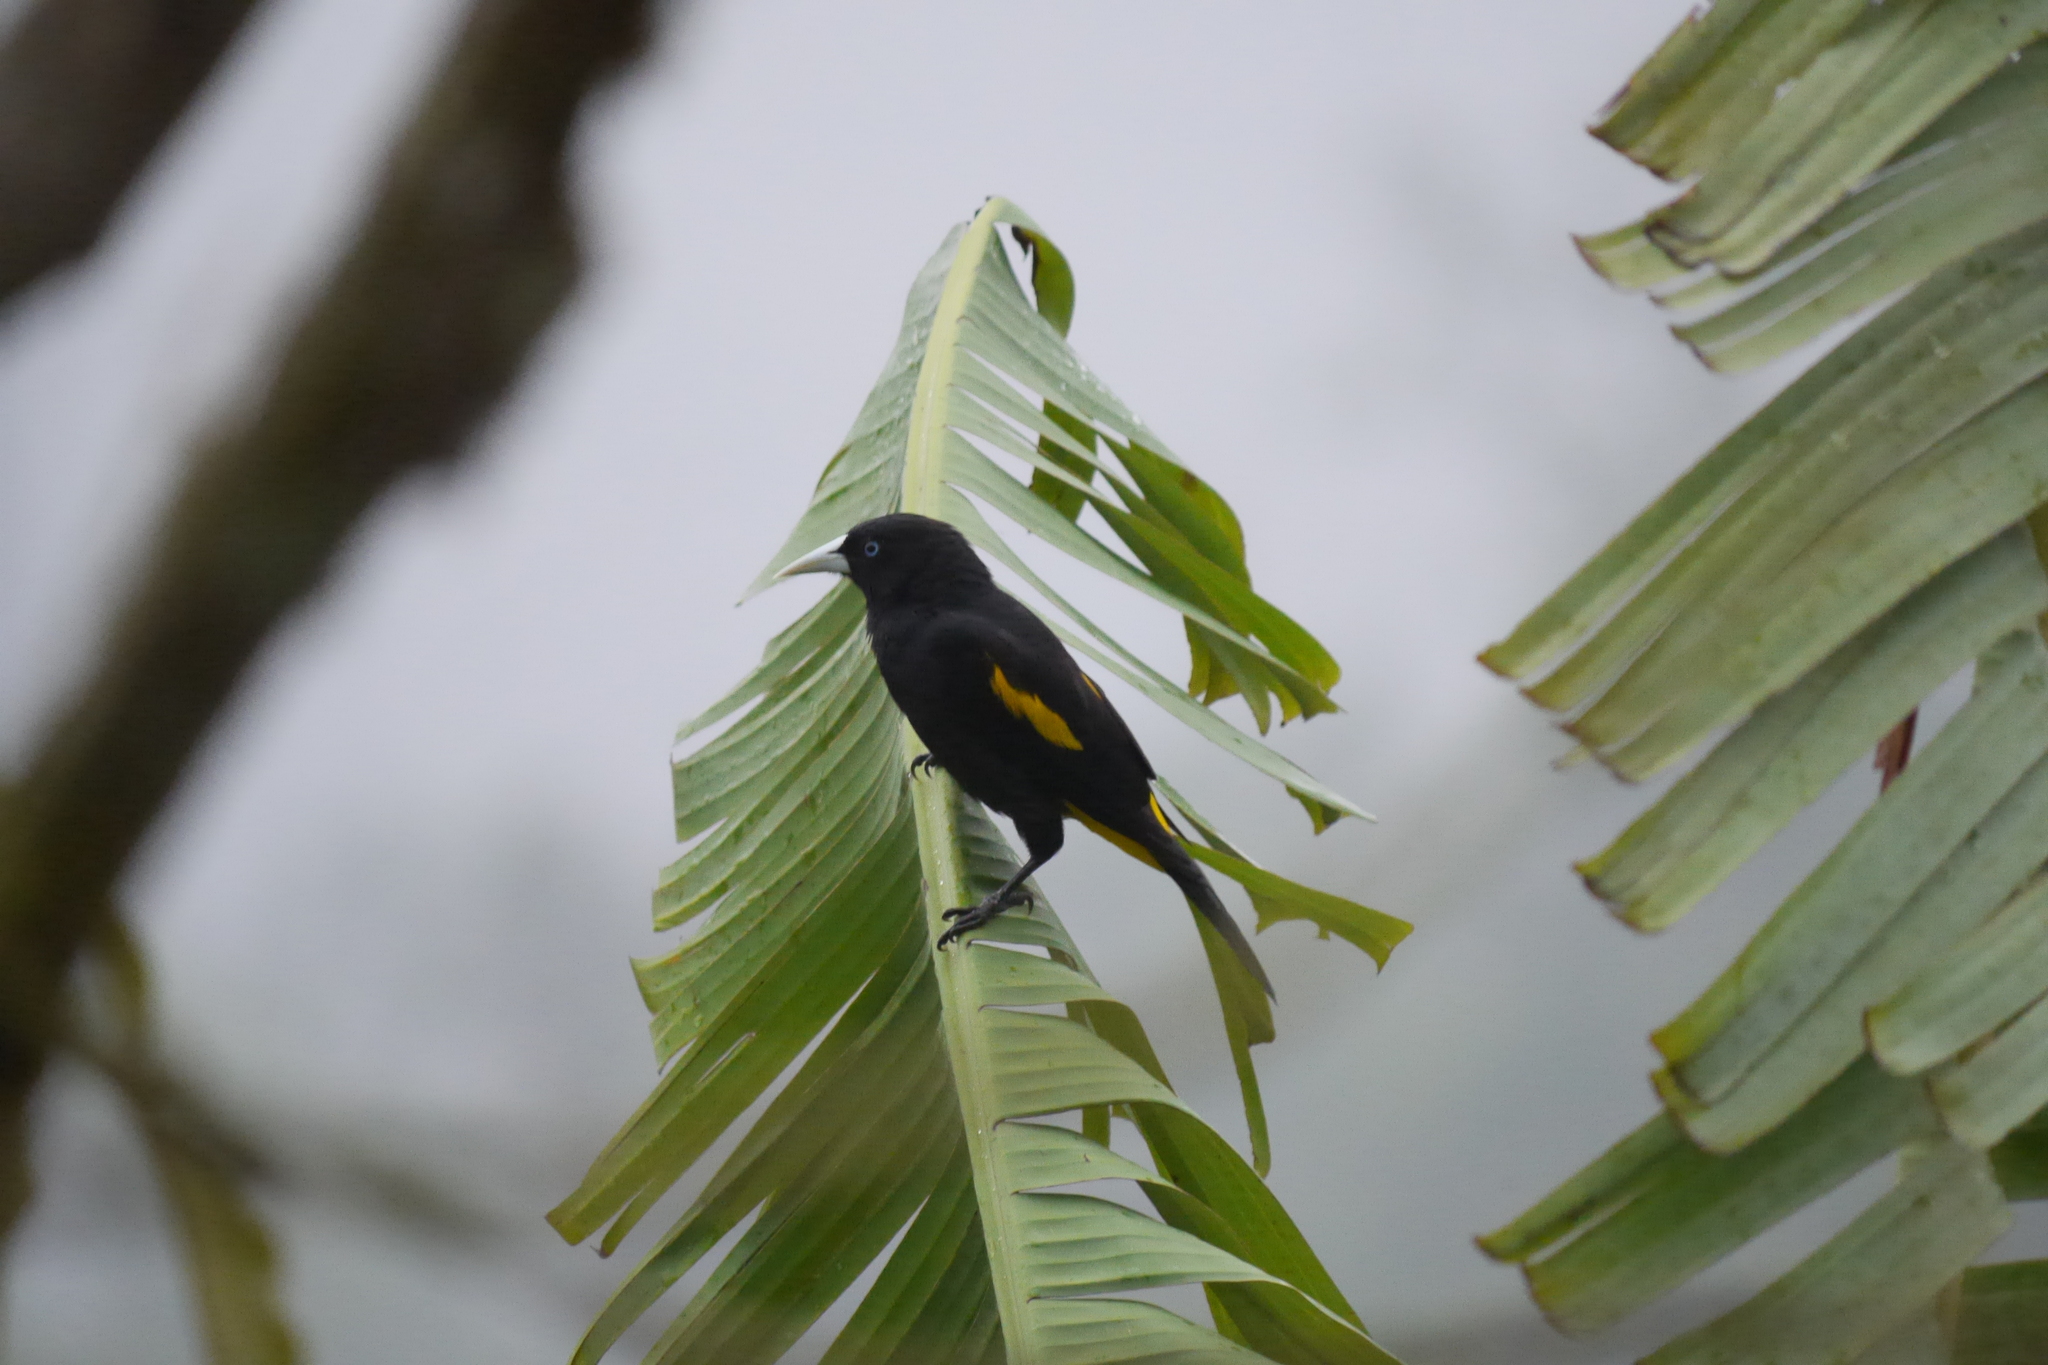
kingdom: Animalia
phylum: Chordata
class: Aves
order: Passeriformes
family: Icteridae
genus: Cacicus
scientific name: Cacicus cela
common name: Yellow-rumped cacique
